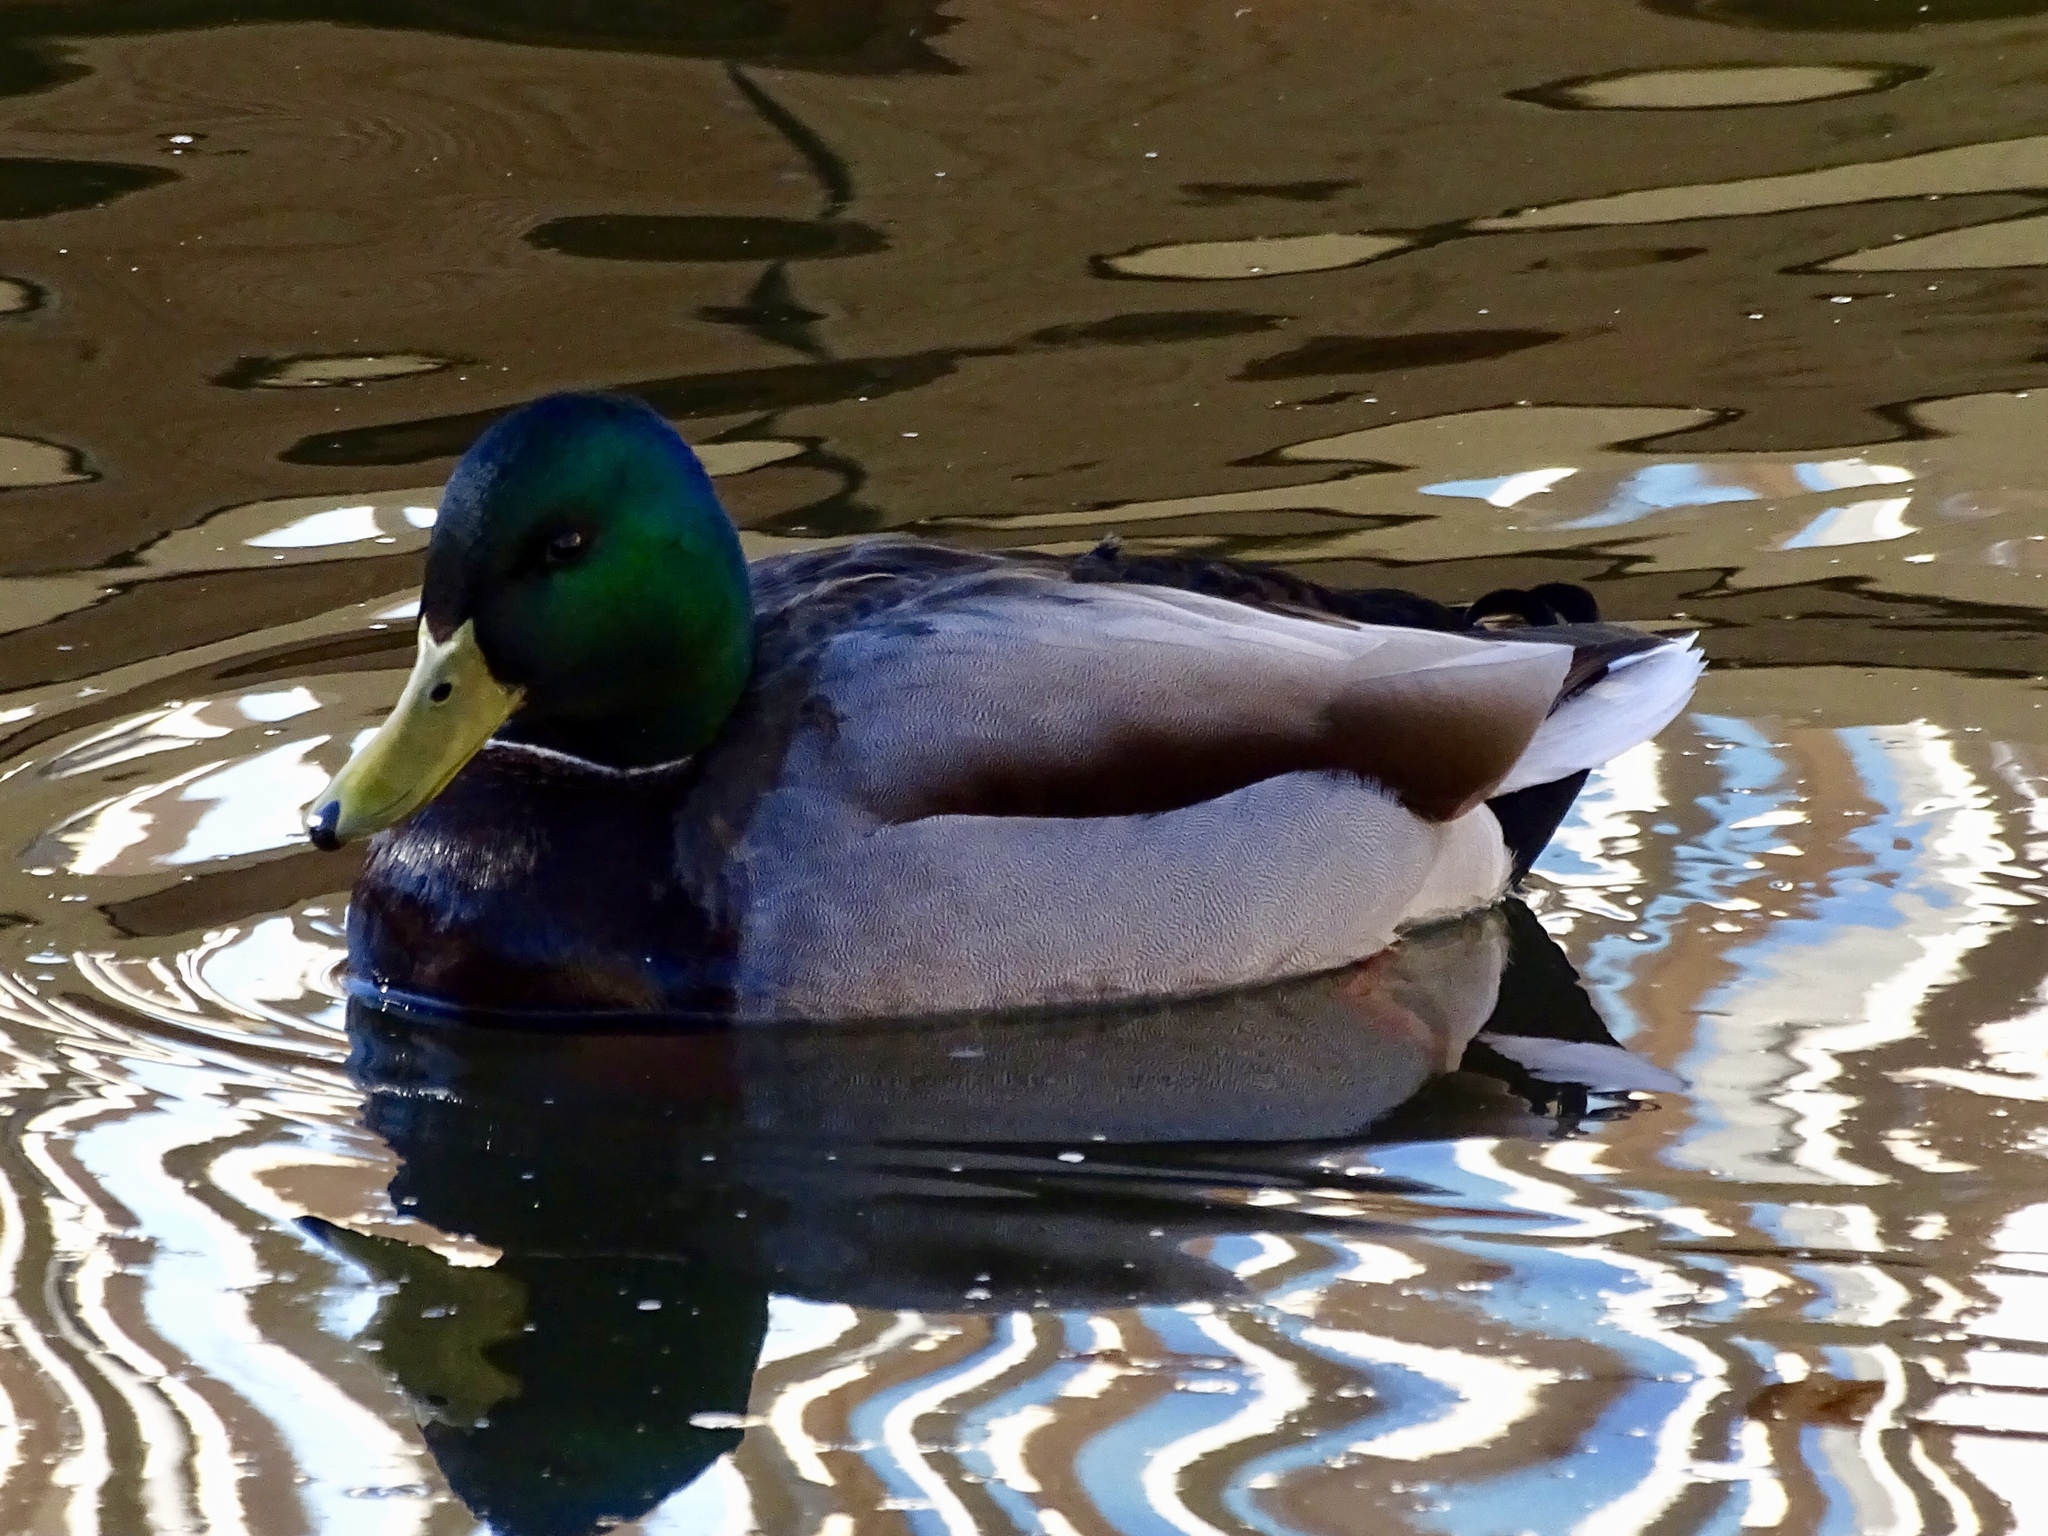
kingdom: Animalia
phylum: Chordata
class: Aves
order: Anseriformes
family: Anatidae
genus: Anas
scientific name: Anas platyrhynchos
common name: Mallard
